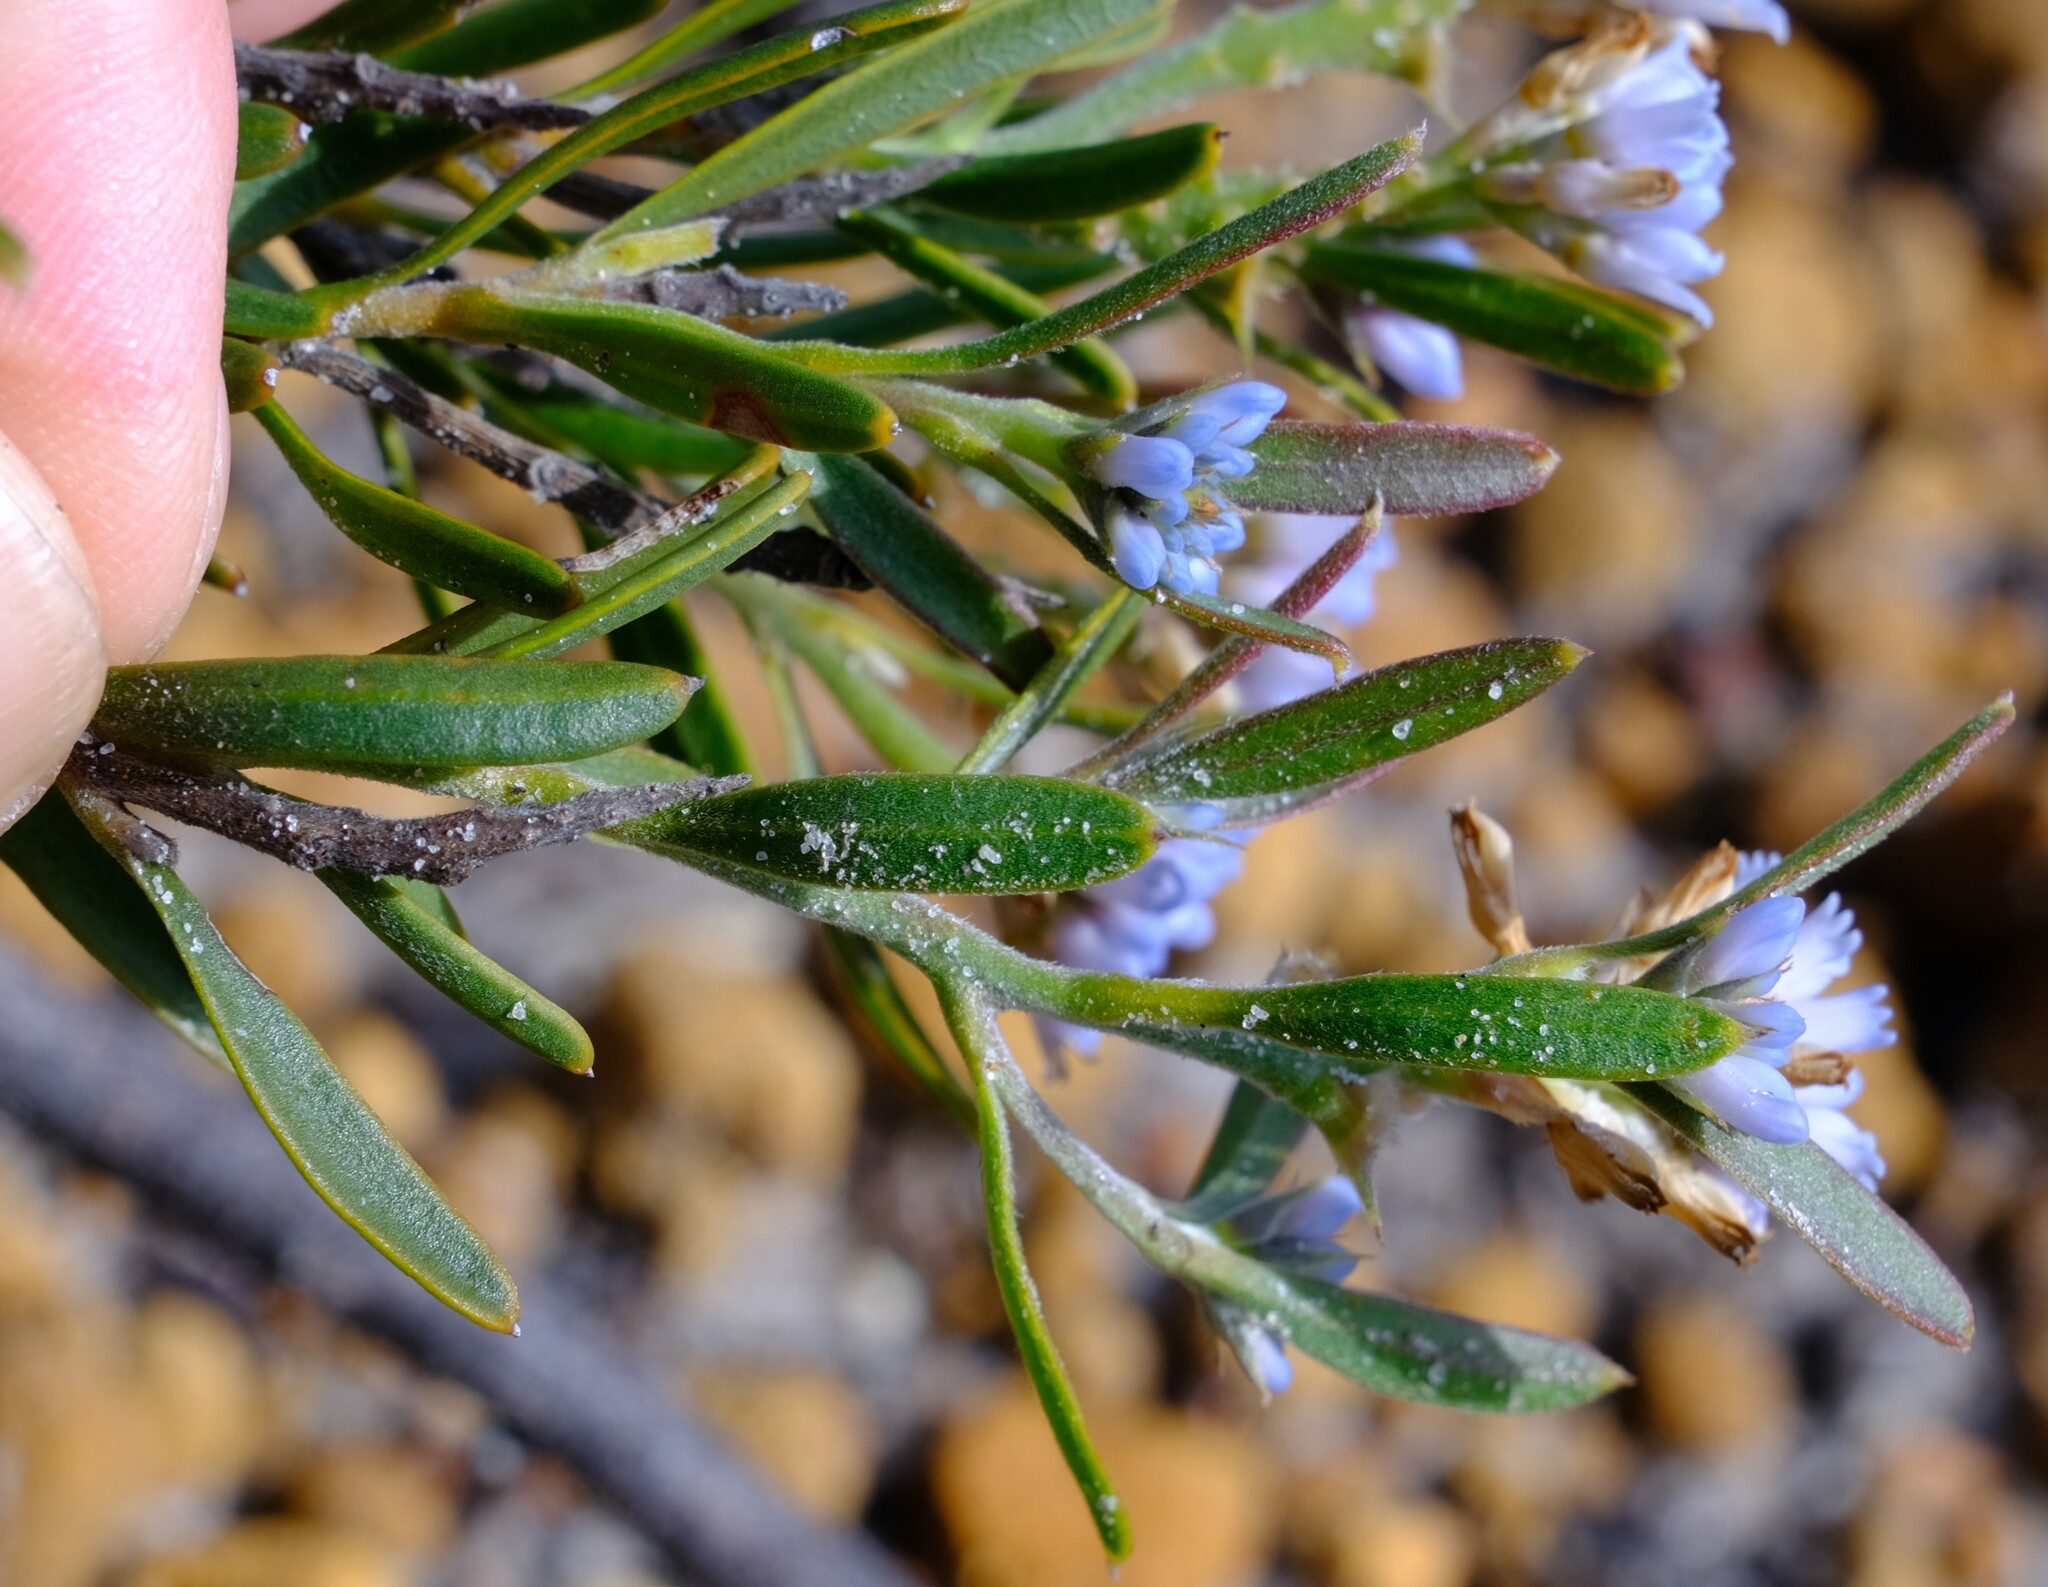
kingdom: Plantae
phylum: Tracheophyta
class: Magnoliopsida
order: Proteales
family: Proteaceae
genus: Conospermum
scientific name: Conospermum nervosum
